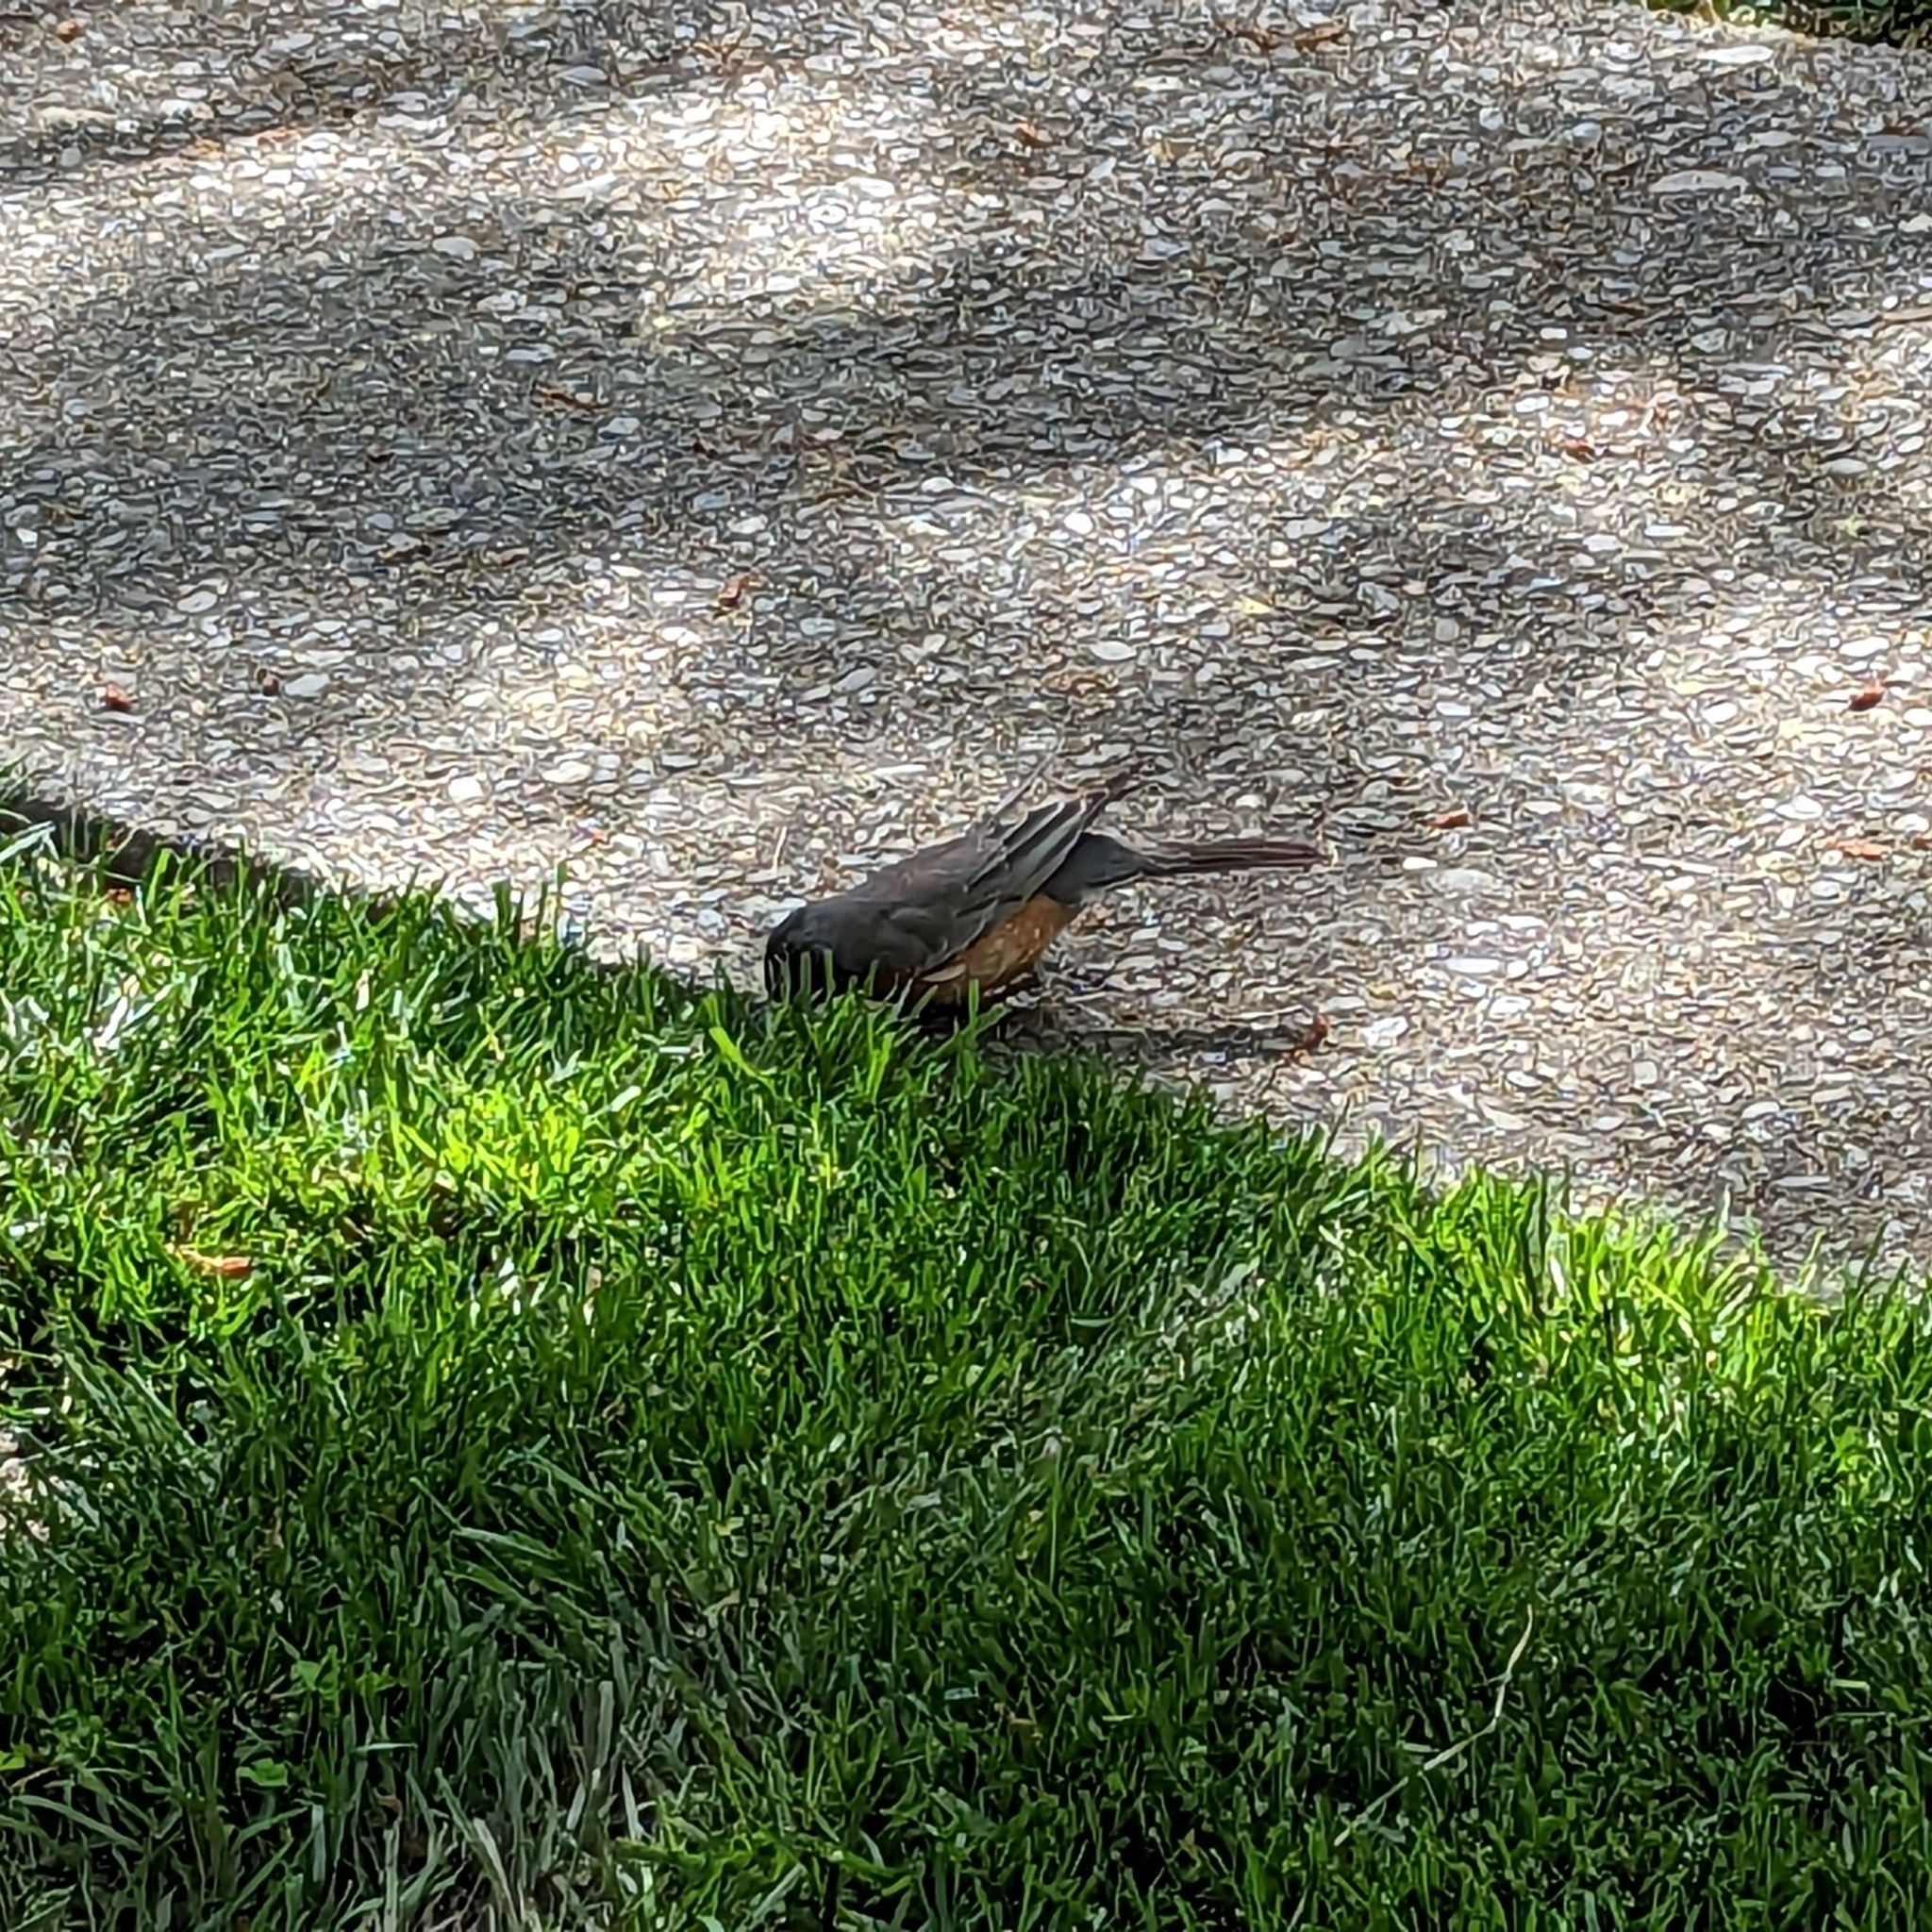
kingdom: Animalia
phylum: Chordata
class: Aves
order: Passeriformes
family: Turdidae
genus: Turdus
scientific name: Turdus migratorius
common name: American robin
